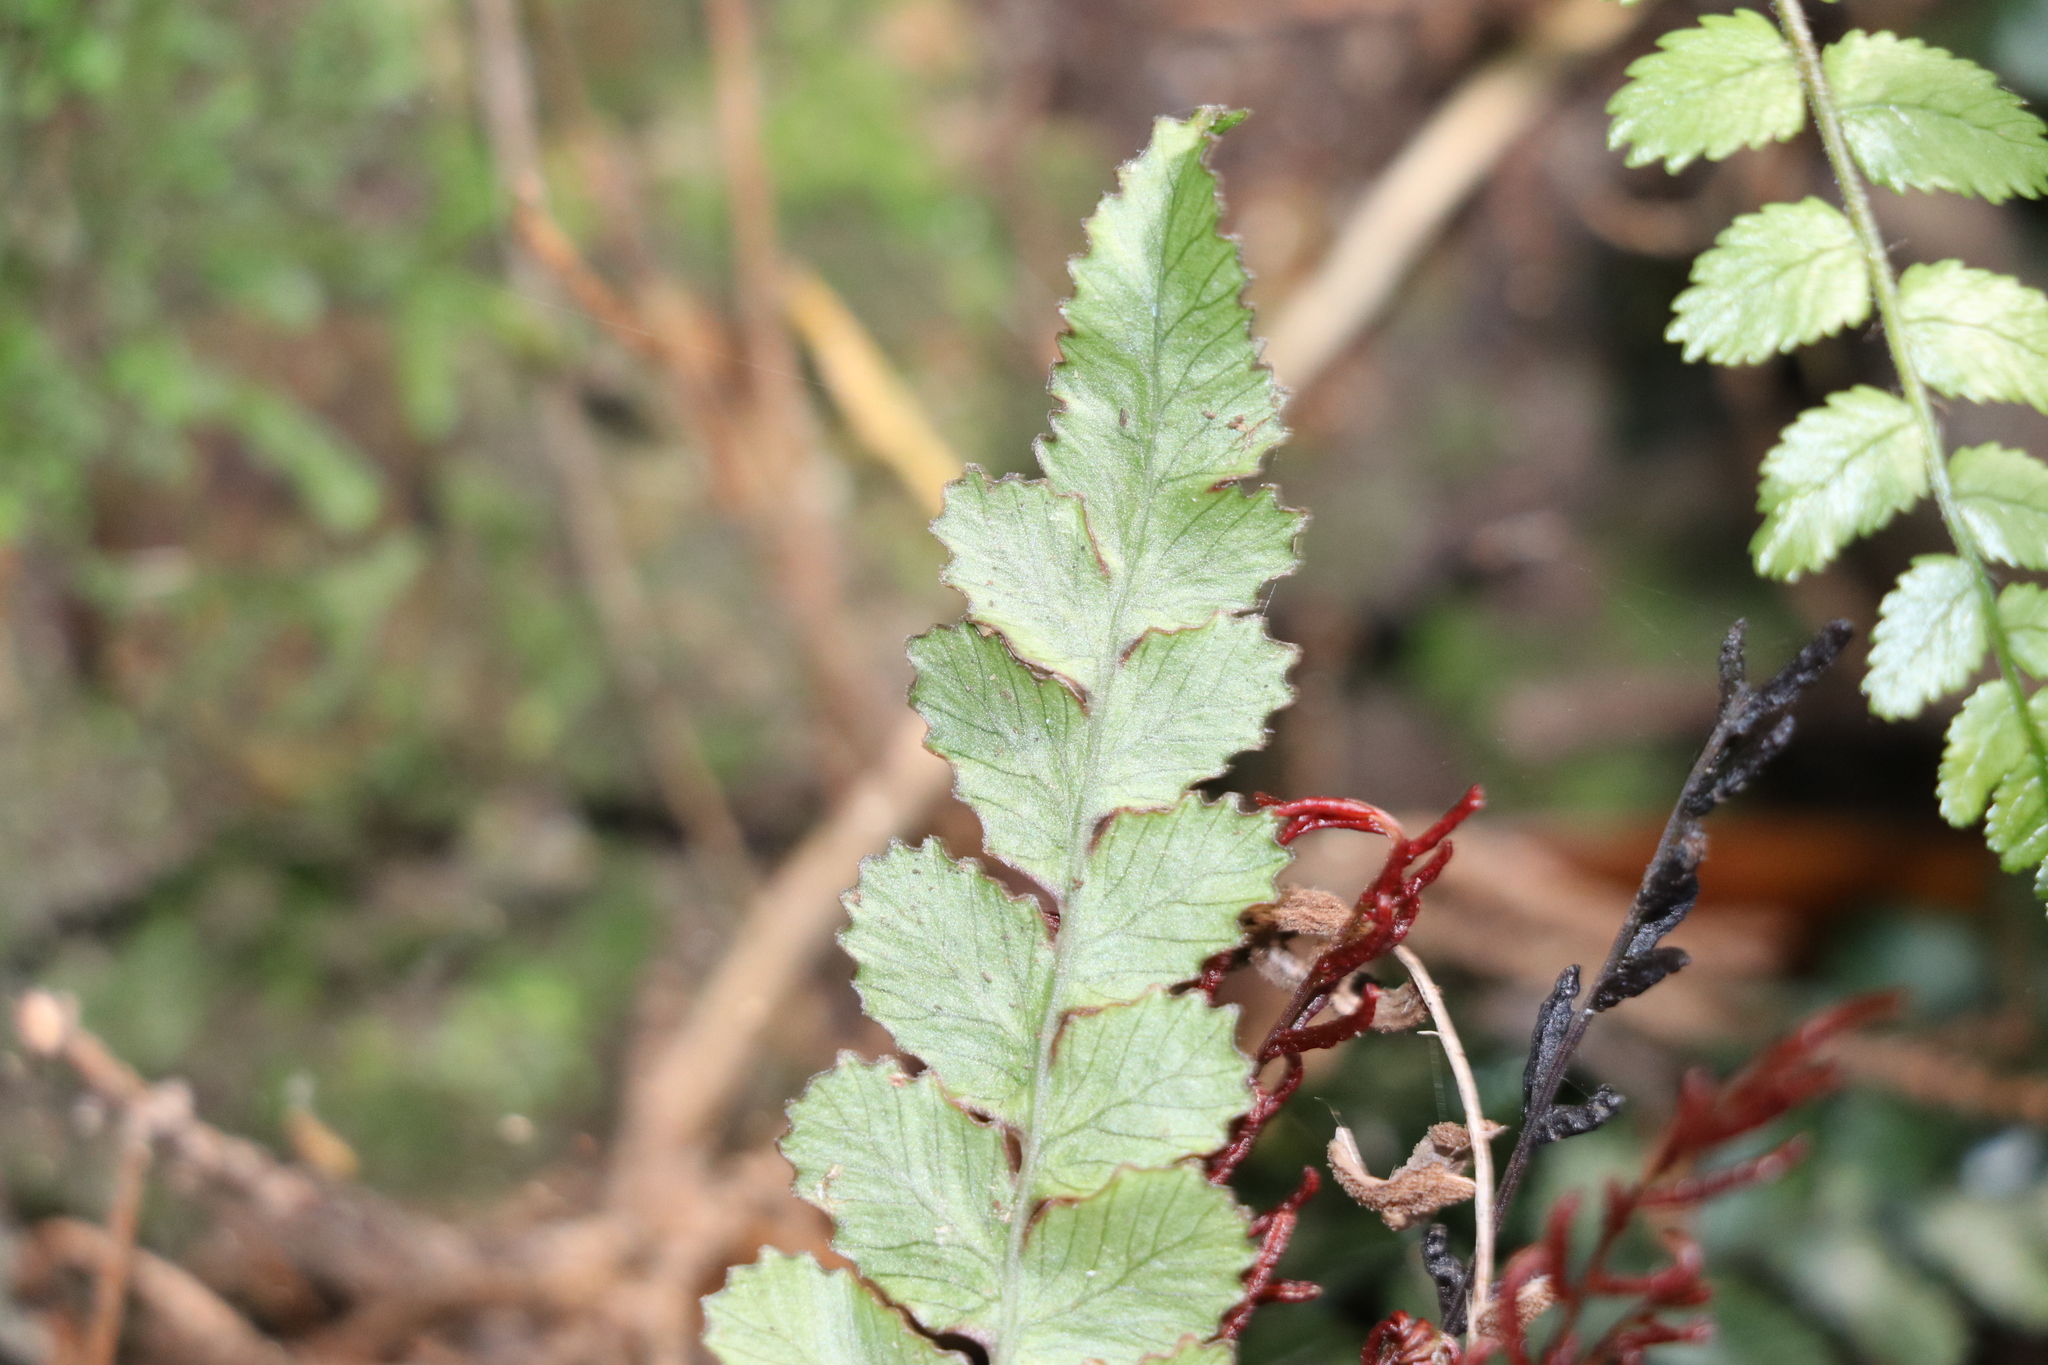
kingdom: Plantae
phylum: Tracheophyta
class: Polypodiopsida
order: Polypodiales
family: Blechnaceae
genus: Austroblechnum
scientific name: Austroblechnum membranaceum
